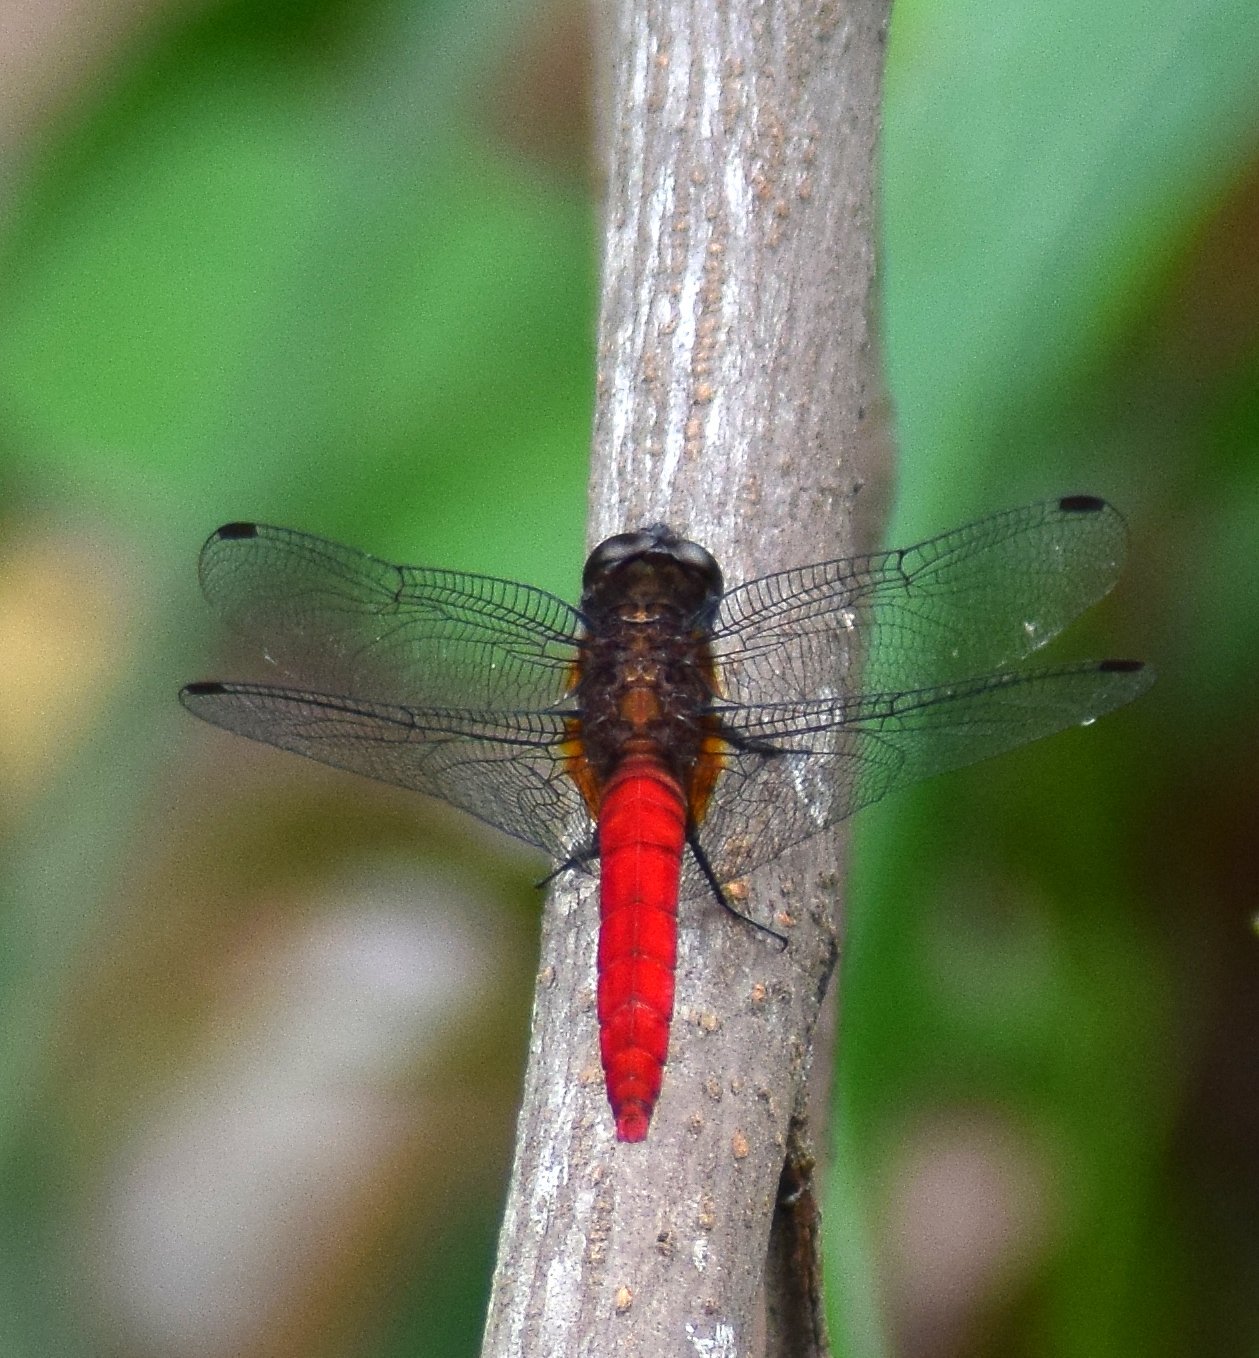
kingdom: Animalia
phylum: Arthropoda
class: Insecta
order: Odonata
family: Libellulidae
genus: Orthetrum
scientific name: Orthetrum chrysis
